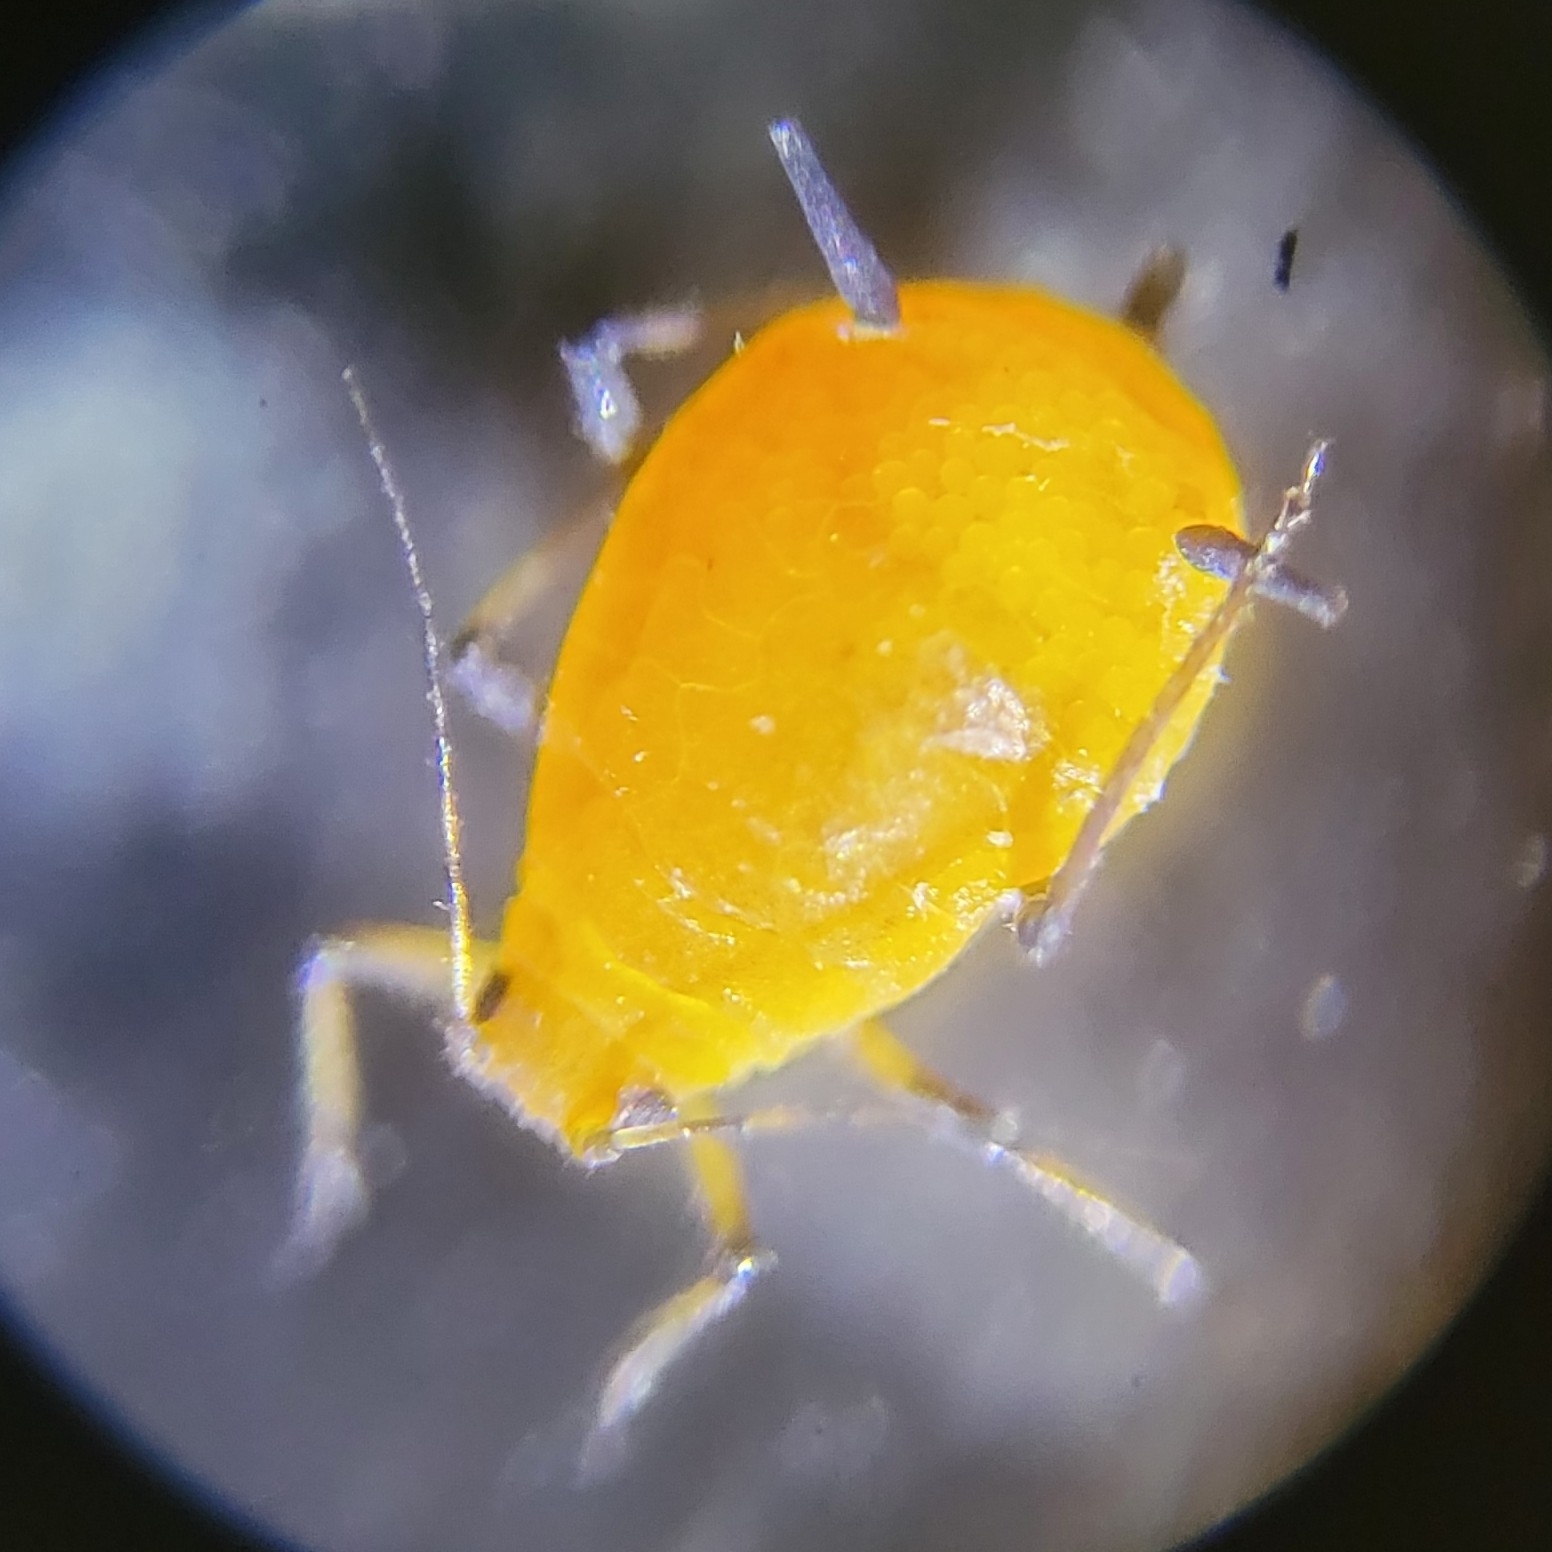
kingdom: Animalia
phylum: Arthropoda
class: Insecta
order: Hemiptera
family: Aphididae
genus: Aphis
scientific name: Aphis nerii
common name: Oleander aphid
